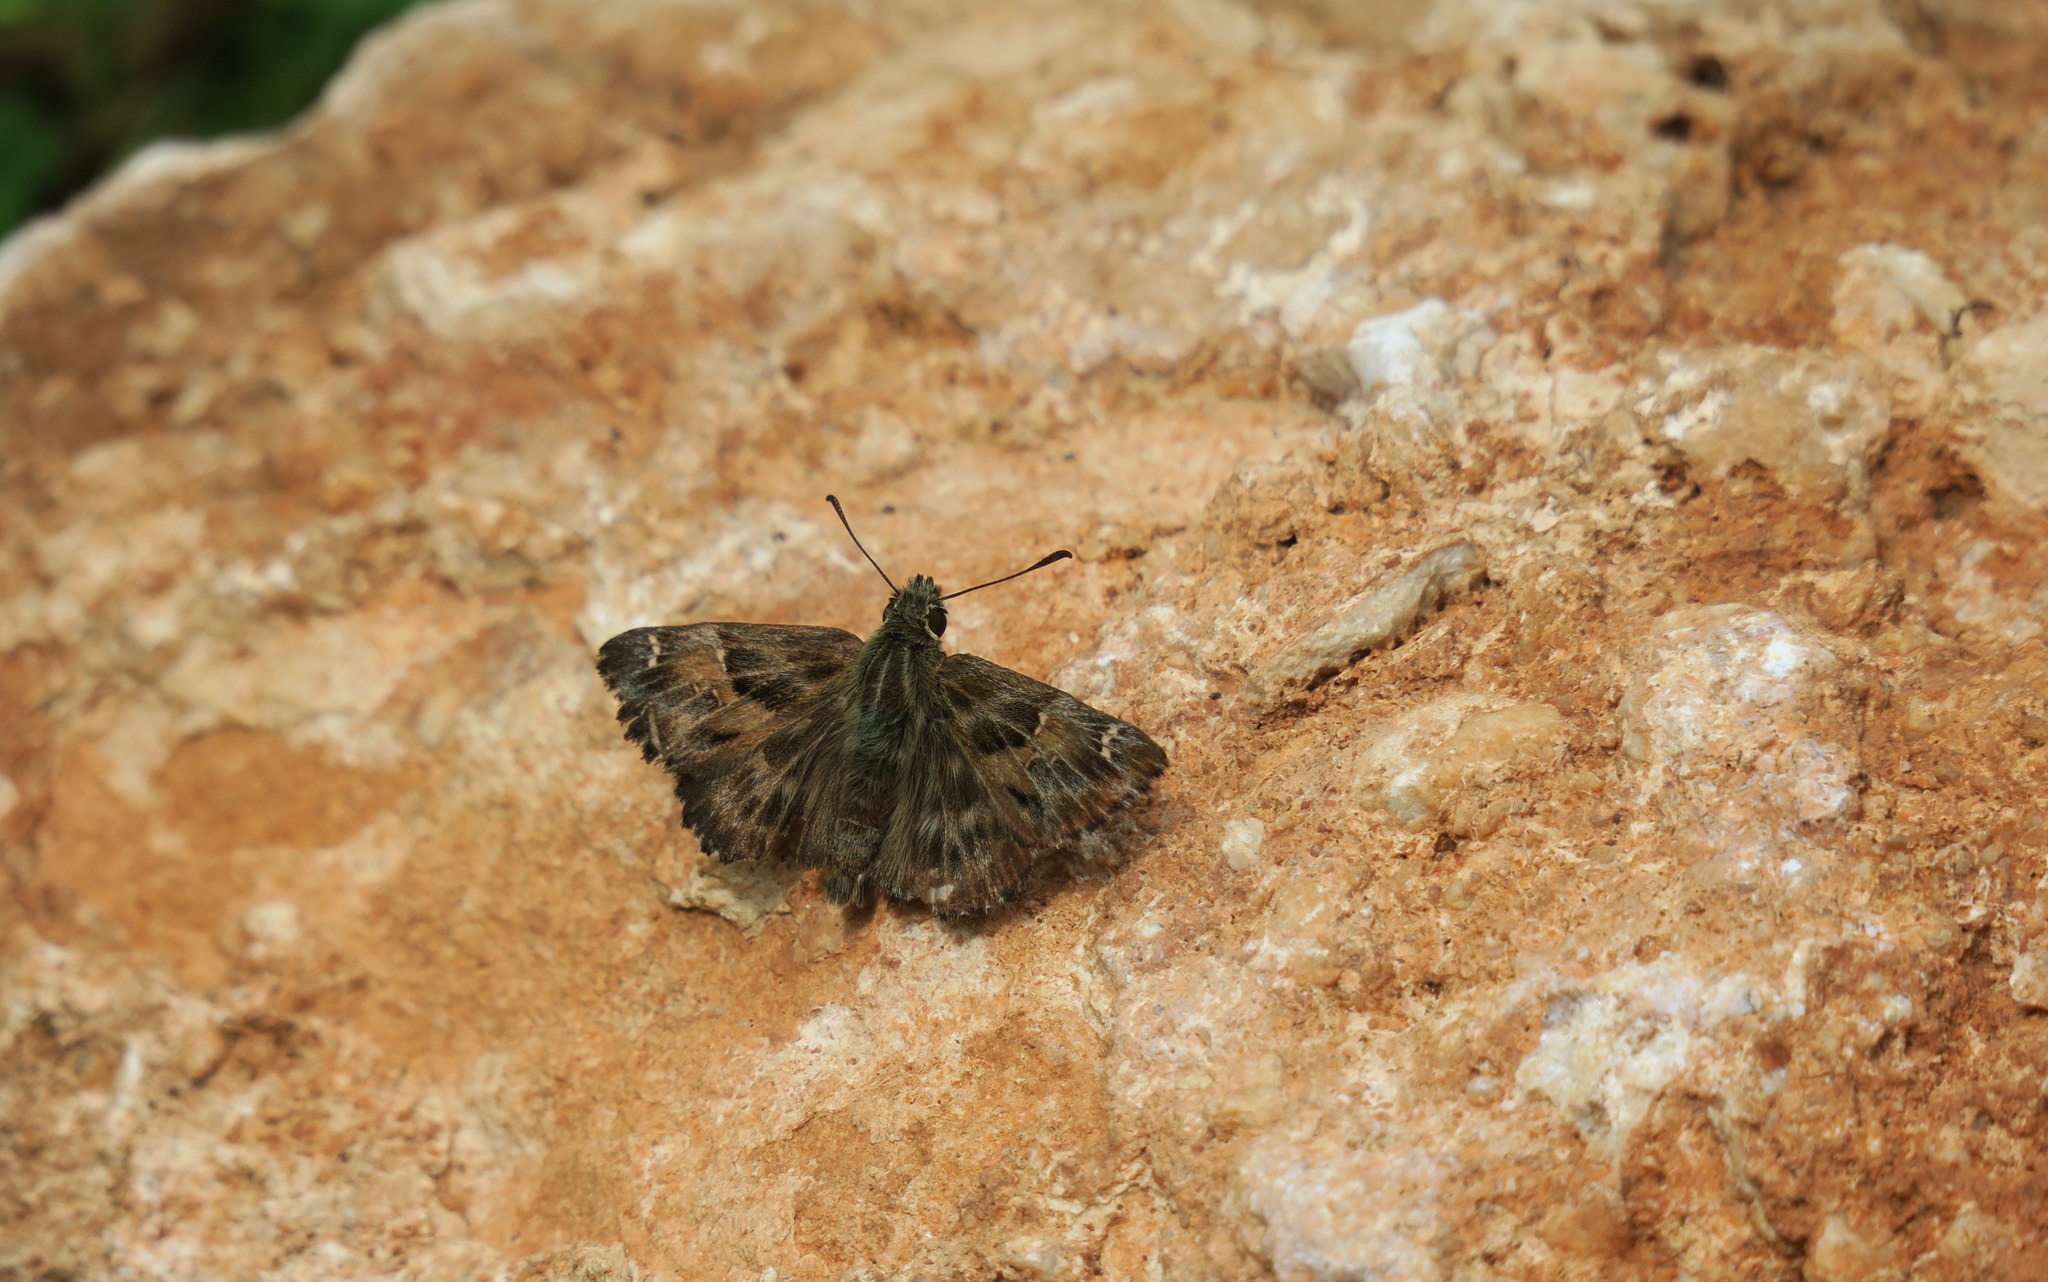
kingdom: Animalia
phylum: Arthropoda
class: Insecta
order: Lepidoptera
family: Hesperiidae
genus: Carcharodus
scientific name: Carcharodus alceae
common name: Mallow skipper
